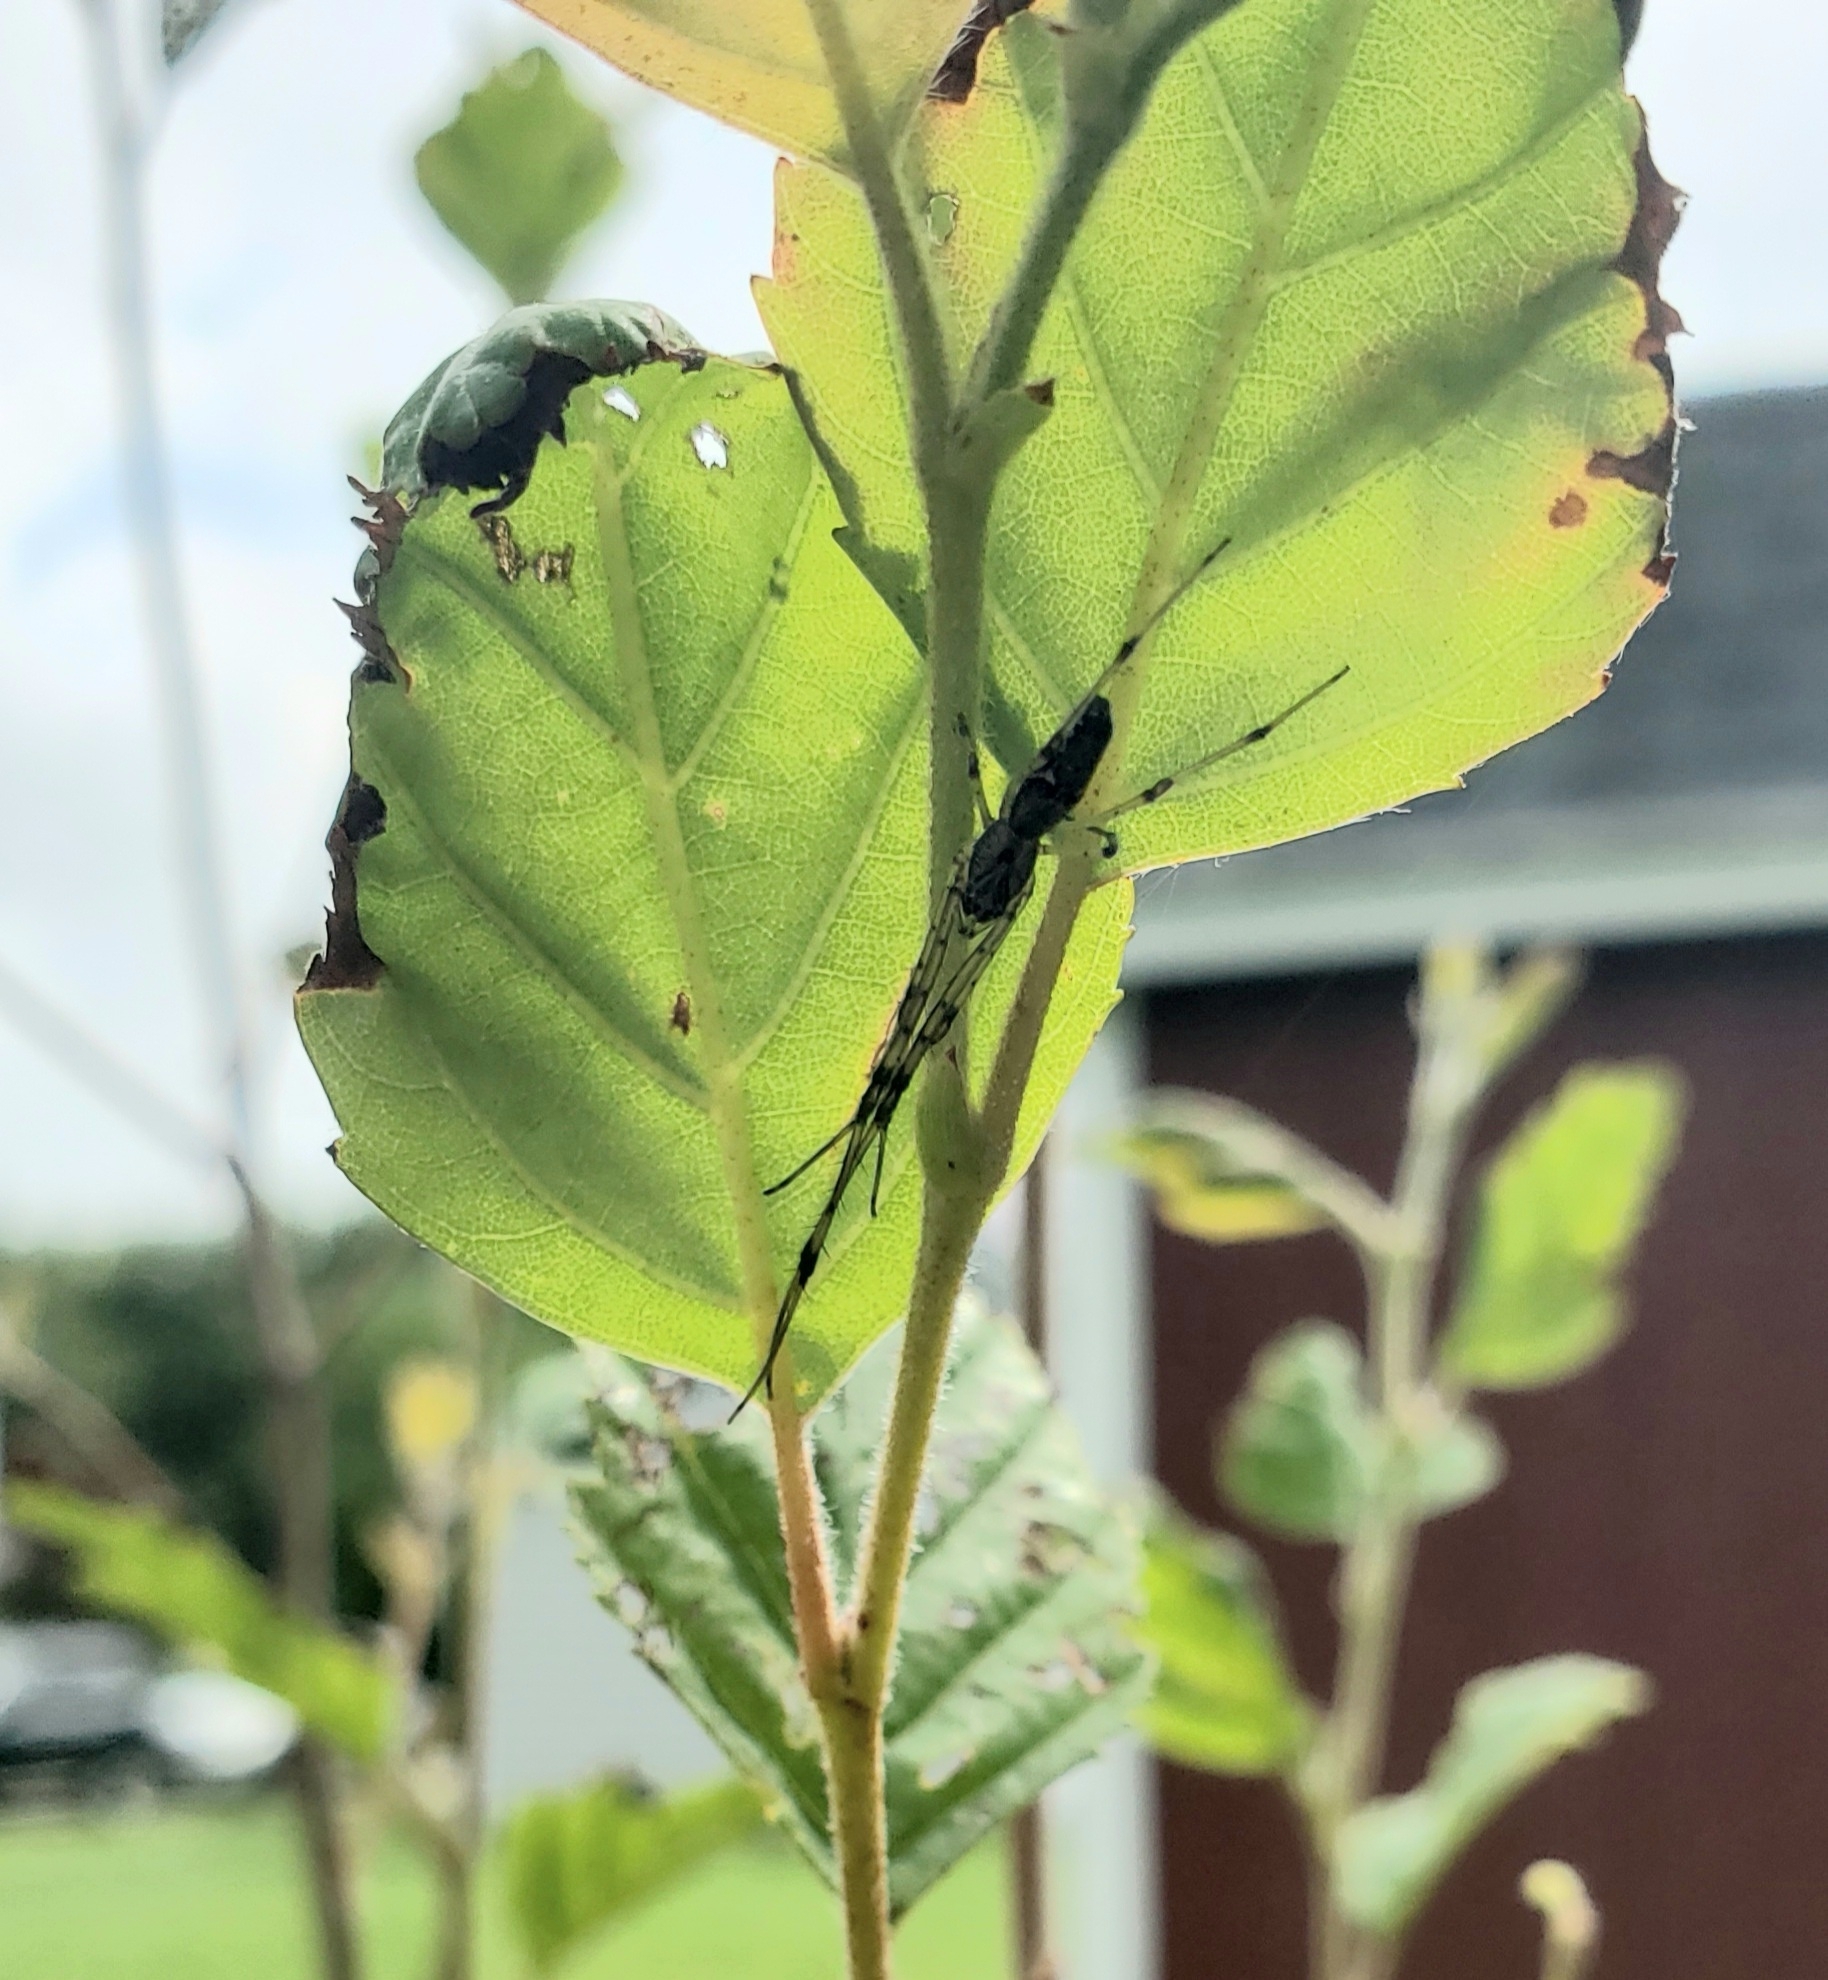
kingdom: Animalia
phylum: Arthropoda
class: Arachnida
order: Araneae
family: Tetragnathidae
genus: Tetragnatha
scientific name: Tetragnatha
